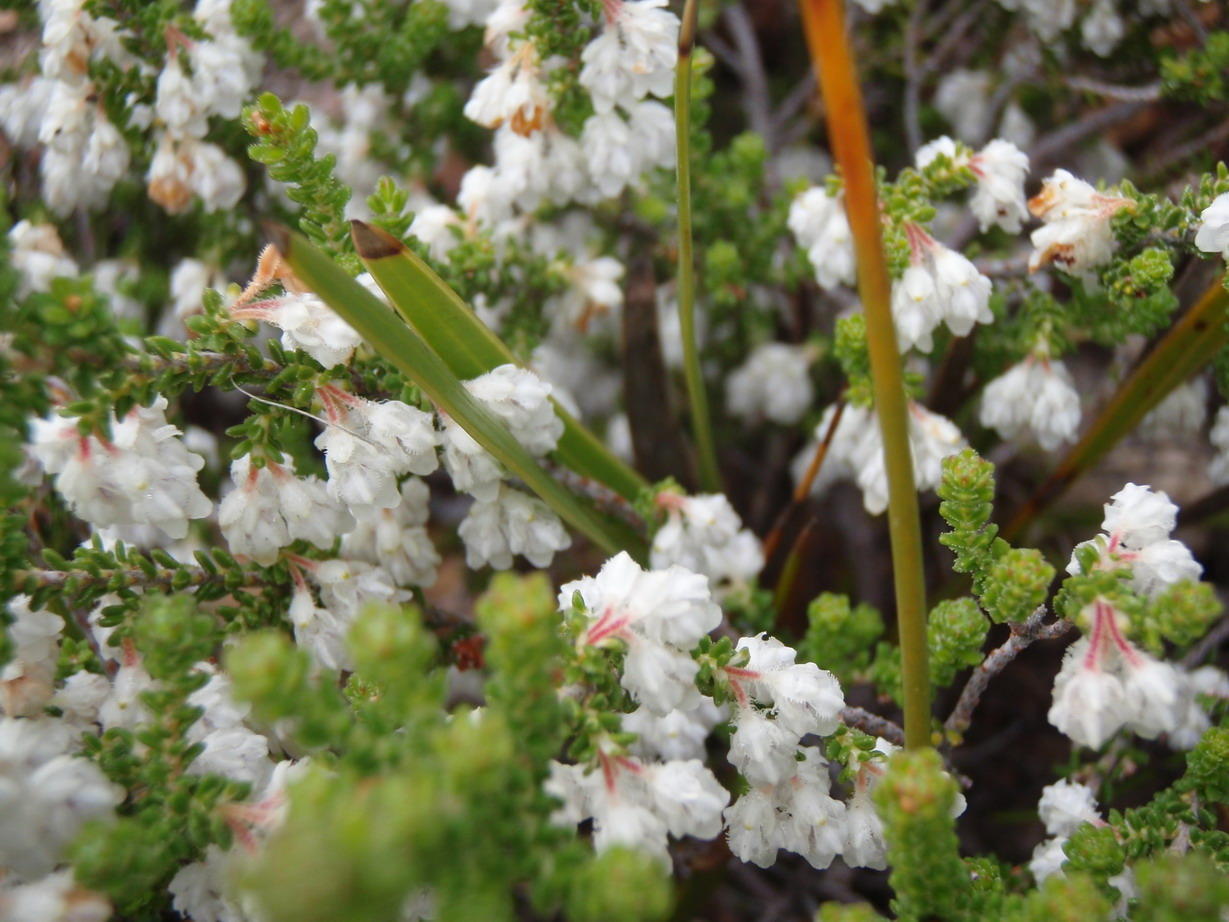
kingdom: Plantae
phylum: Tracheophyta
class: Magnoliopsida
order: Ericales
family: Ericaceae
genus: Erica
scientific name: Erica fimbriata
